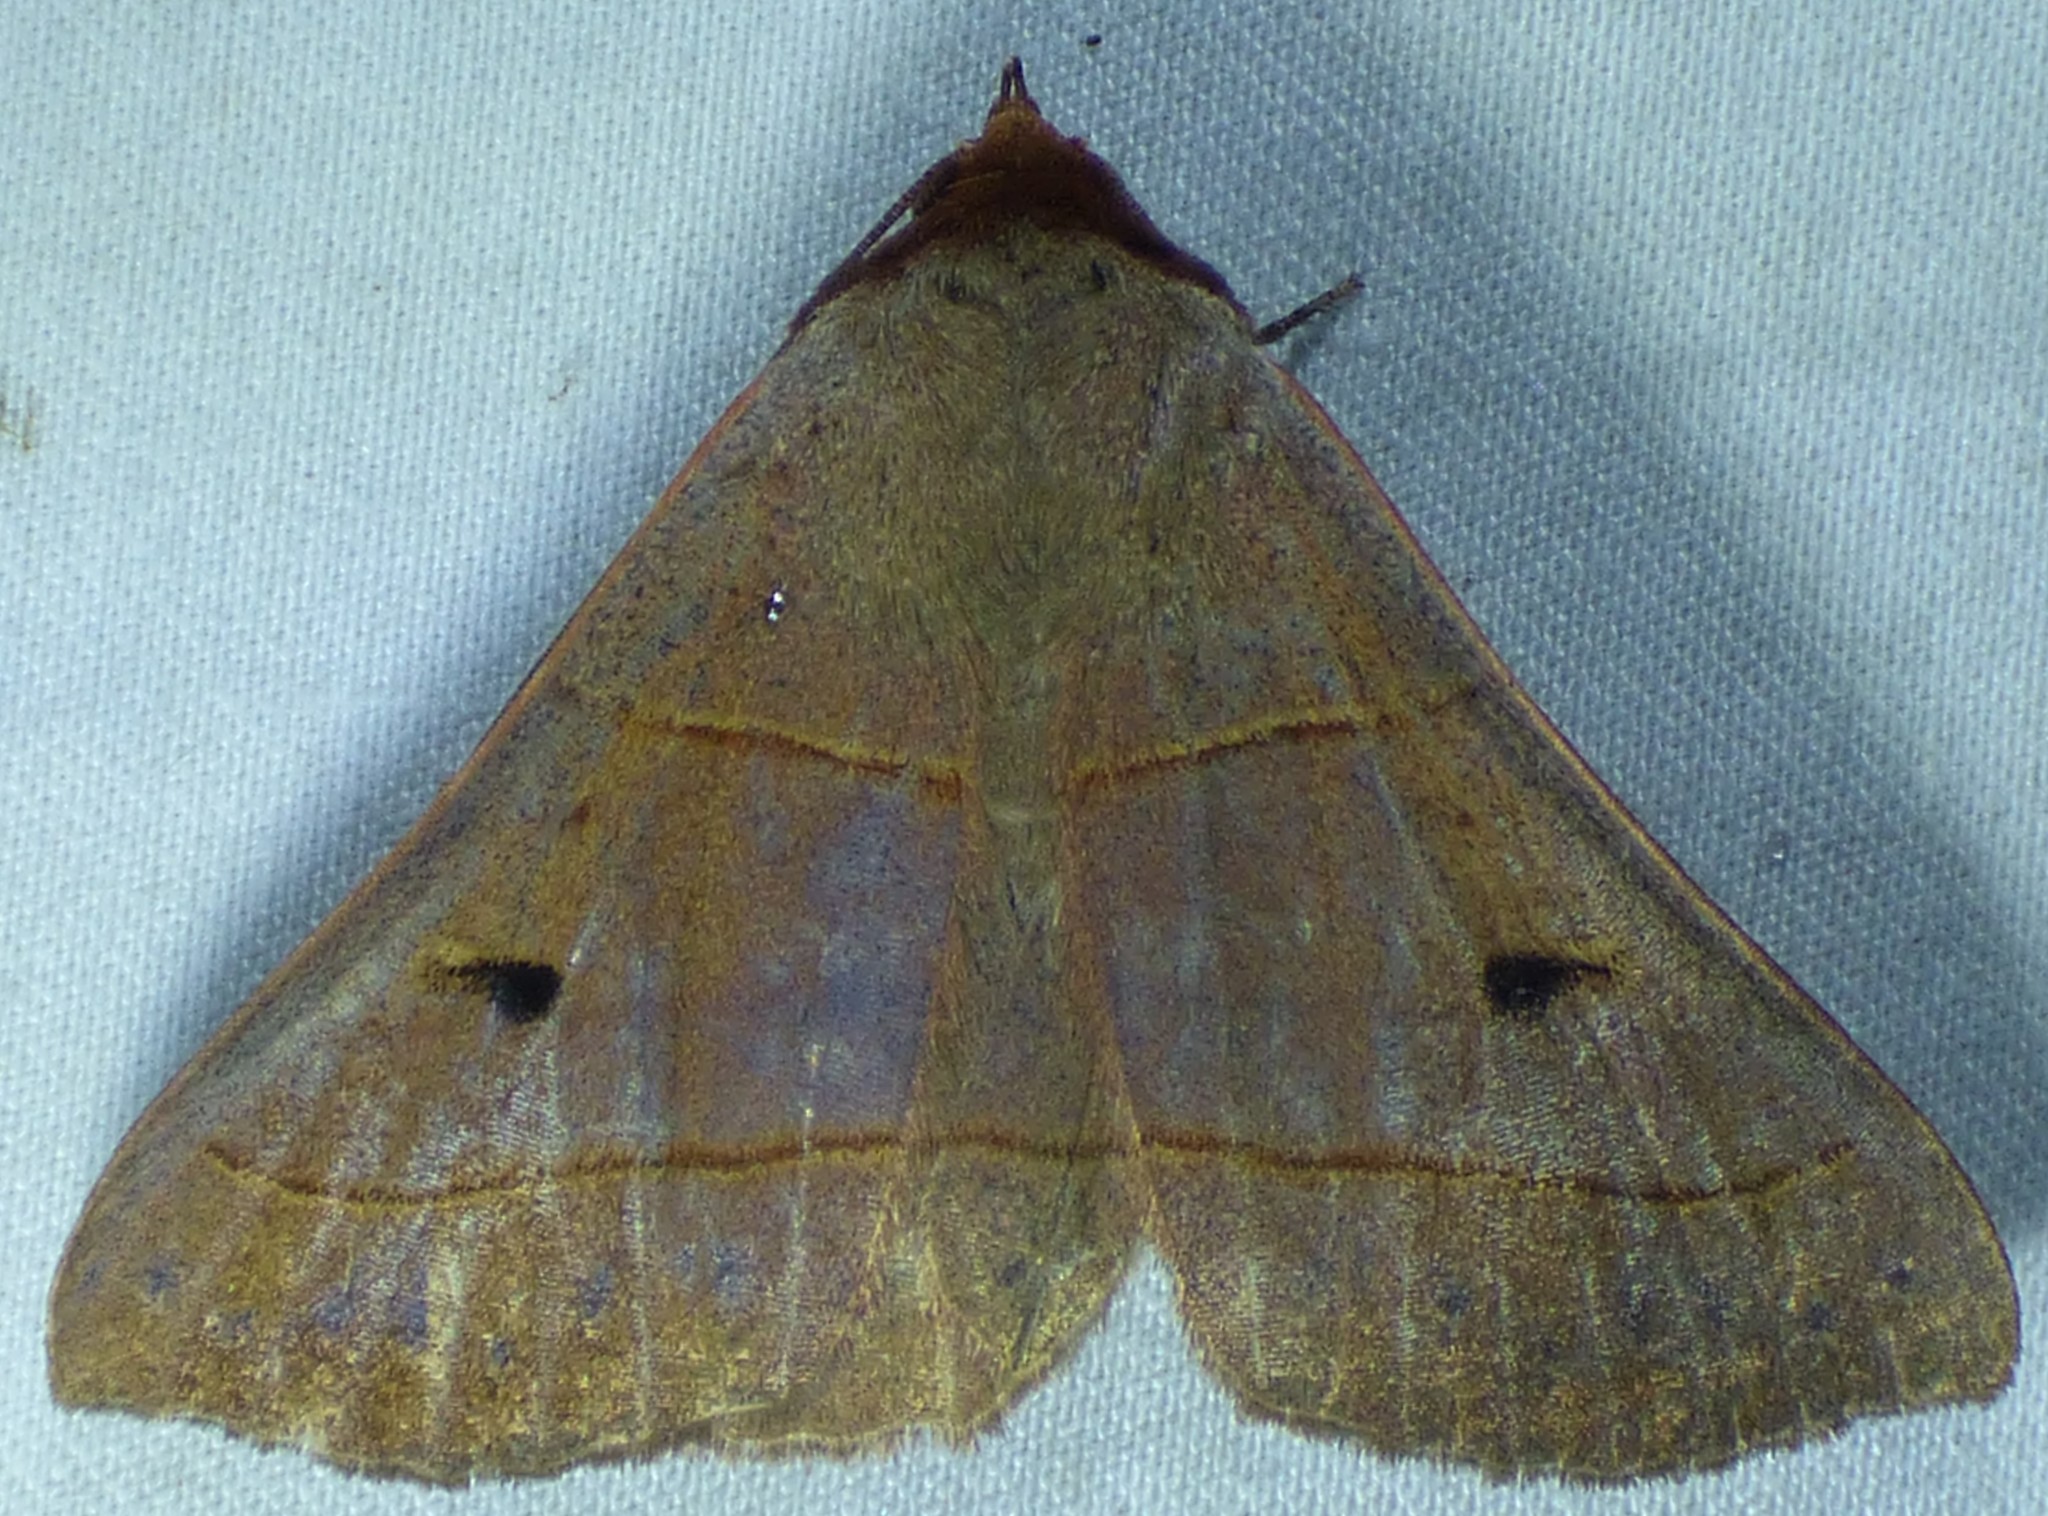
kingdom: Animalia
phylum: Arthropoda
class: Insecta
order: Lepidoptera
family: Erebidae
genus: Panopoda
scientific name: Panopoda rufimargo
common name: Red-lined panopoda moth
